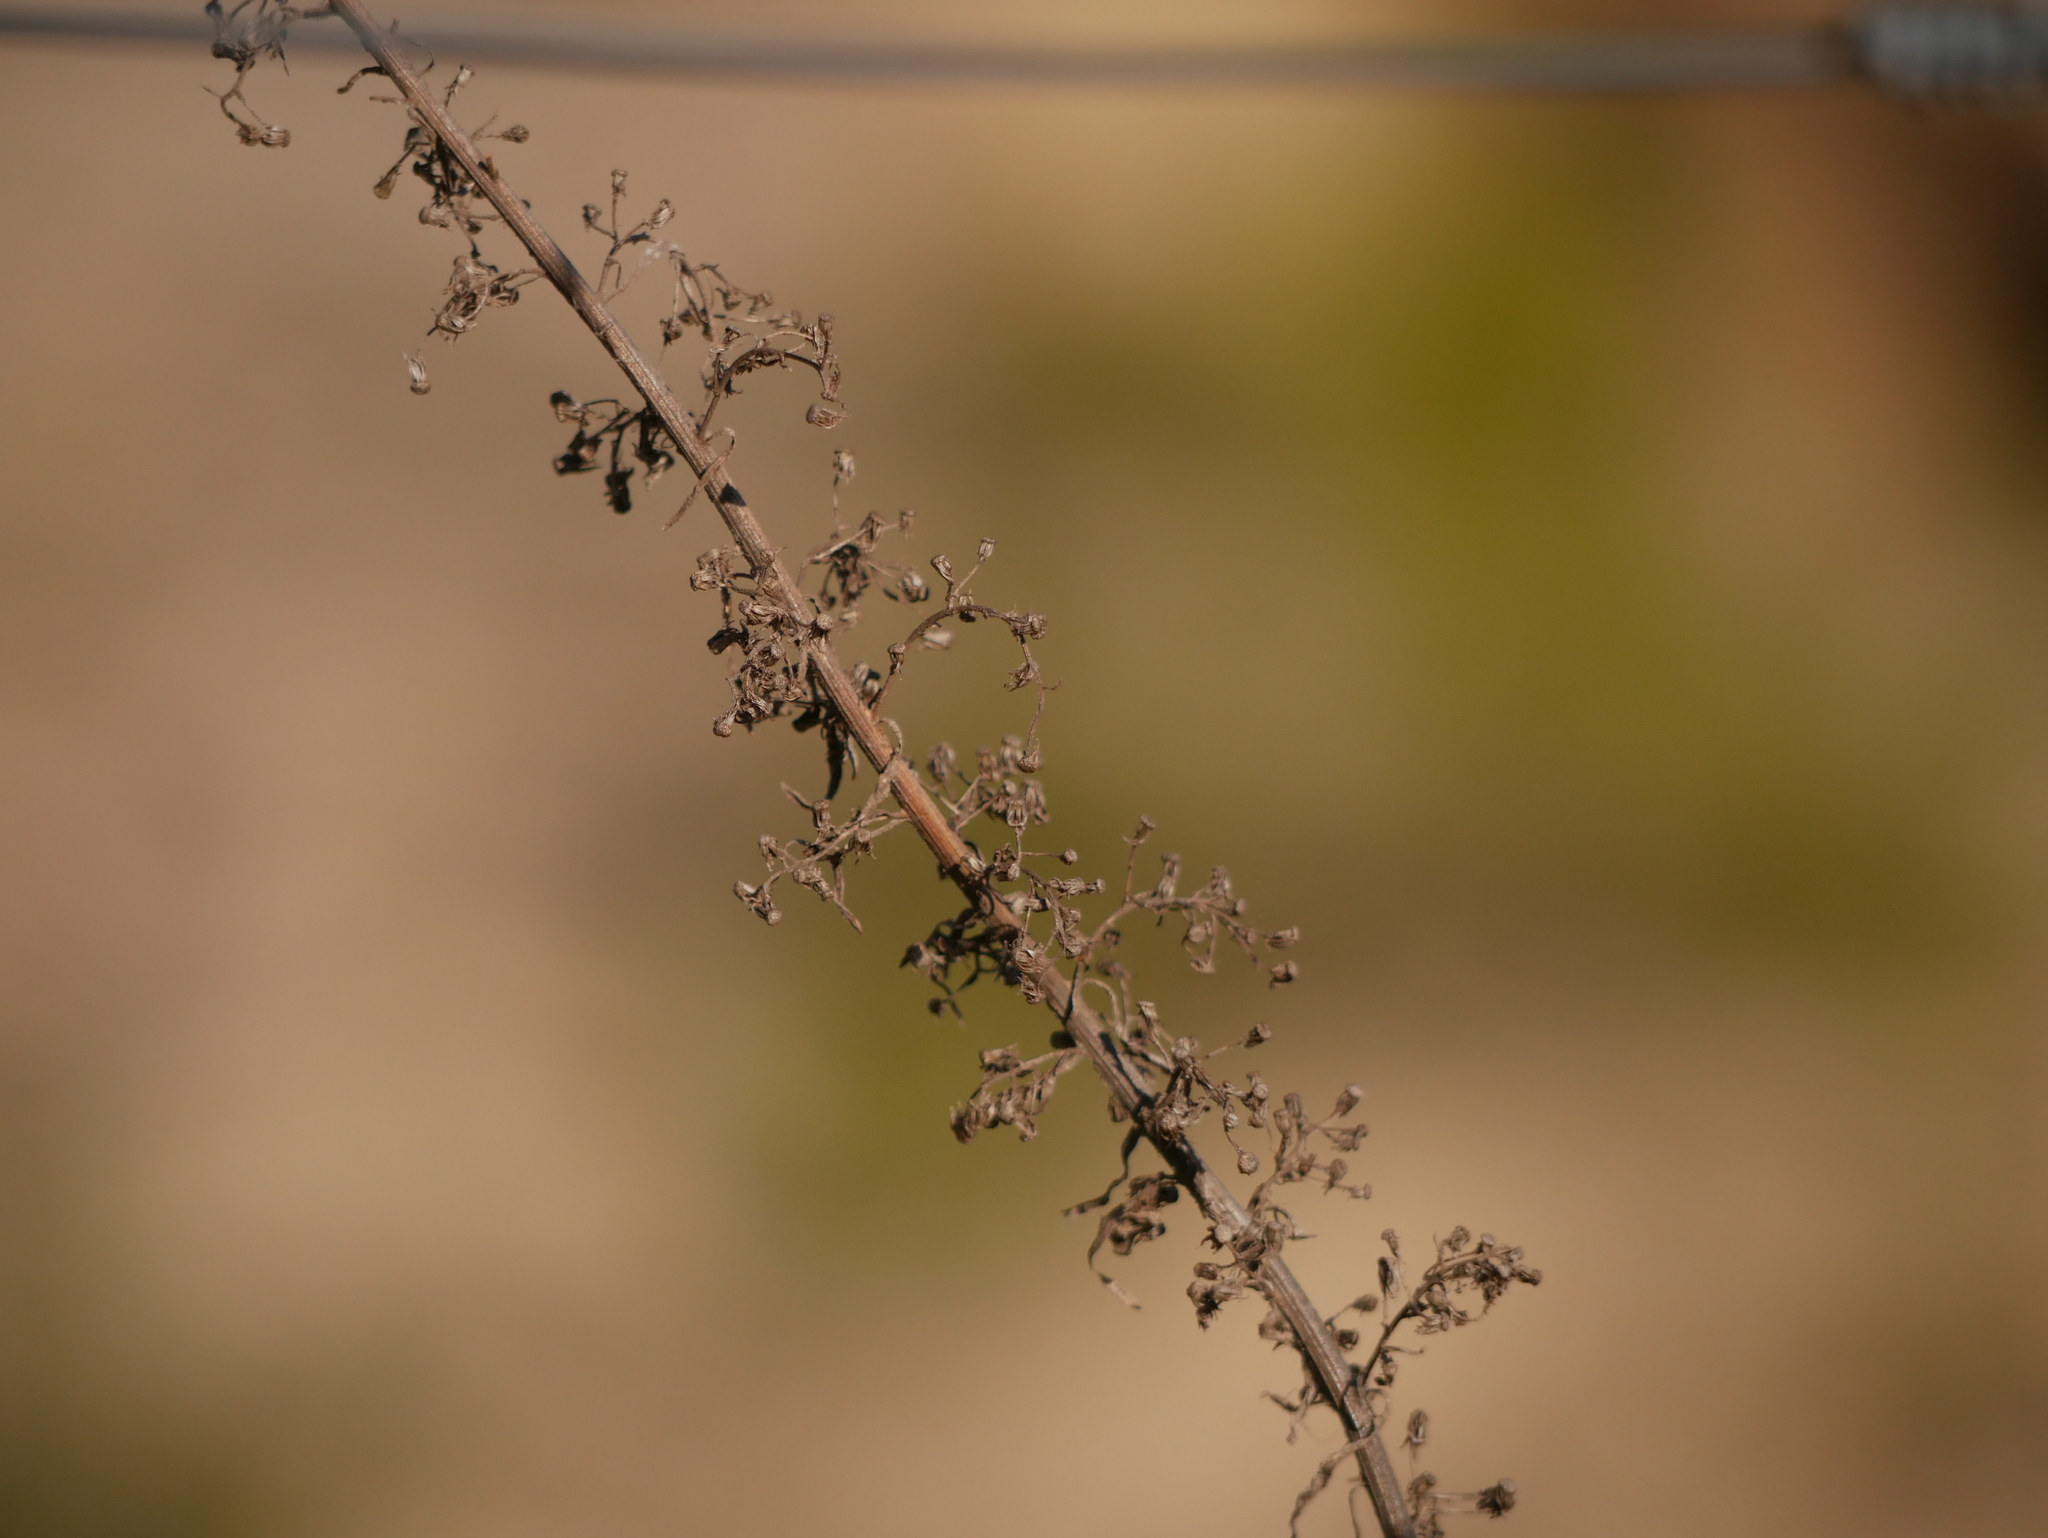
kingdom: Plantae
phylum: Tracheophyta
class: Magnoliopsida
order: Asterales
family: Asteraceae
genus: Artemisia
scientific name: Artemisia vulgaris
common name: Mugwort
